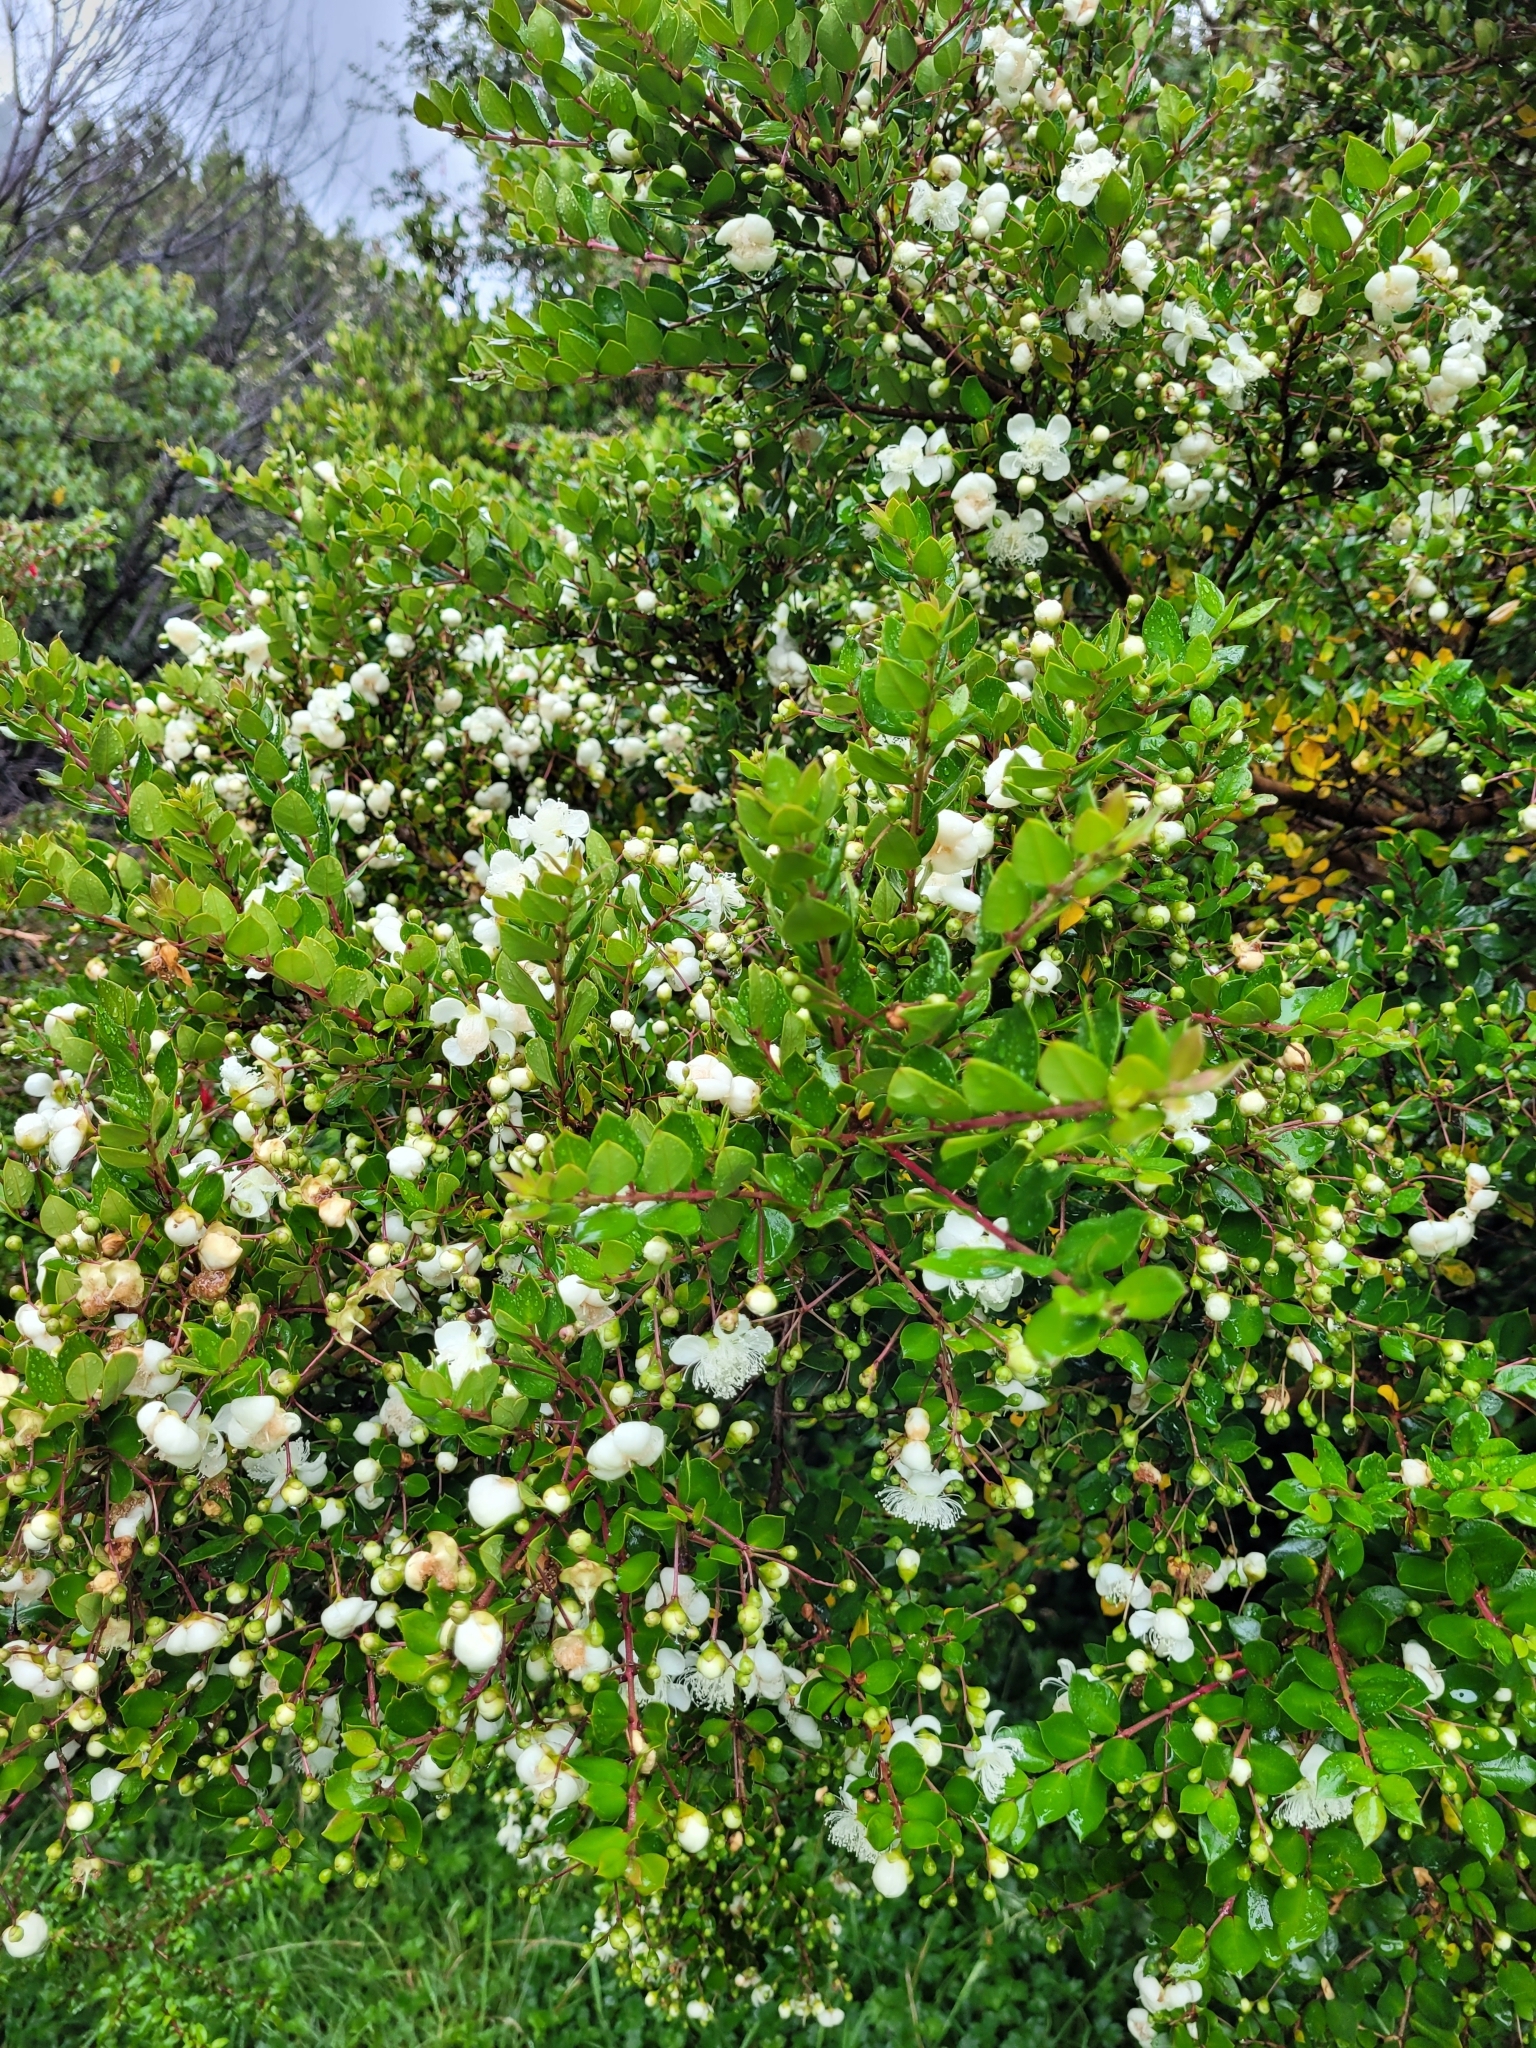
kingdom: Plantae
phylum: Tracheophyta
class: Magnoliopsida
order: Myrtales
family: Myrtaceae
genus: Luma
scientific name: Luma apiculata
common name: Chilean myrtle
